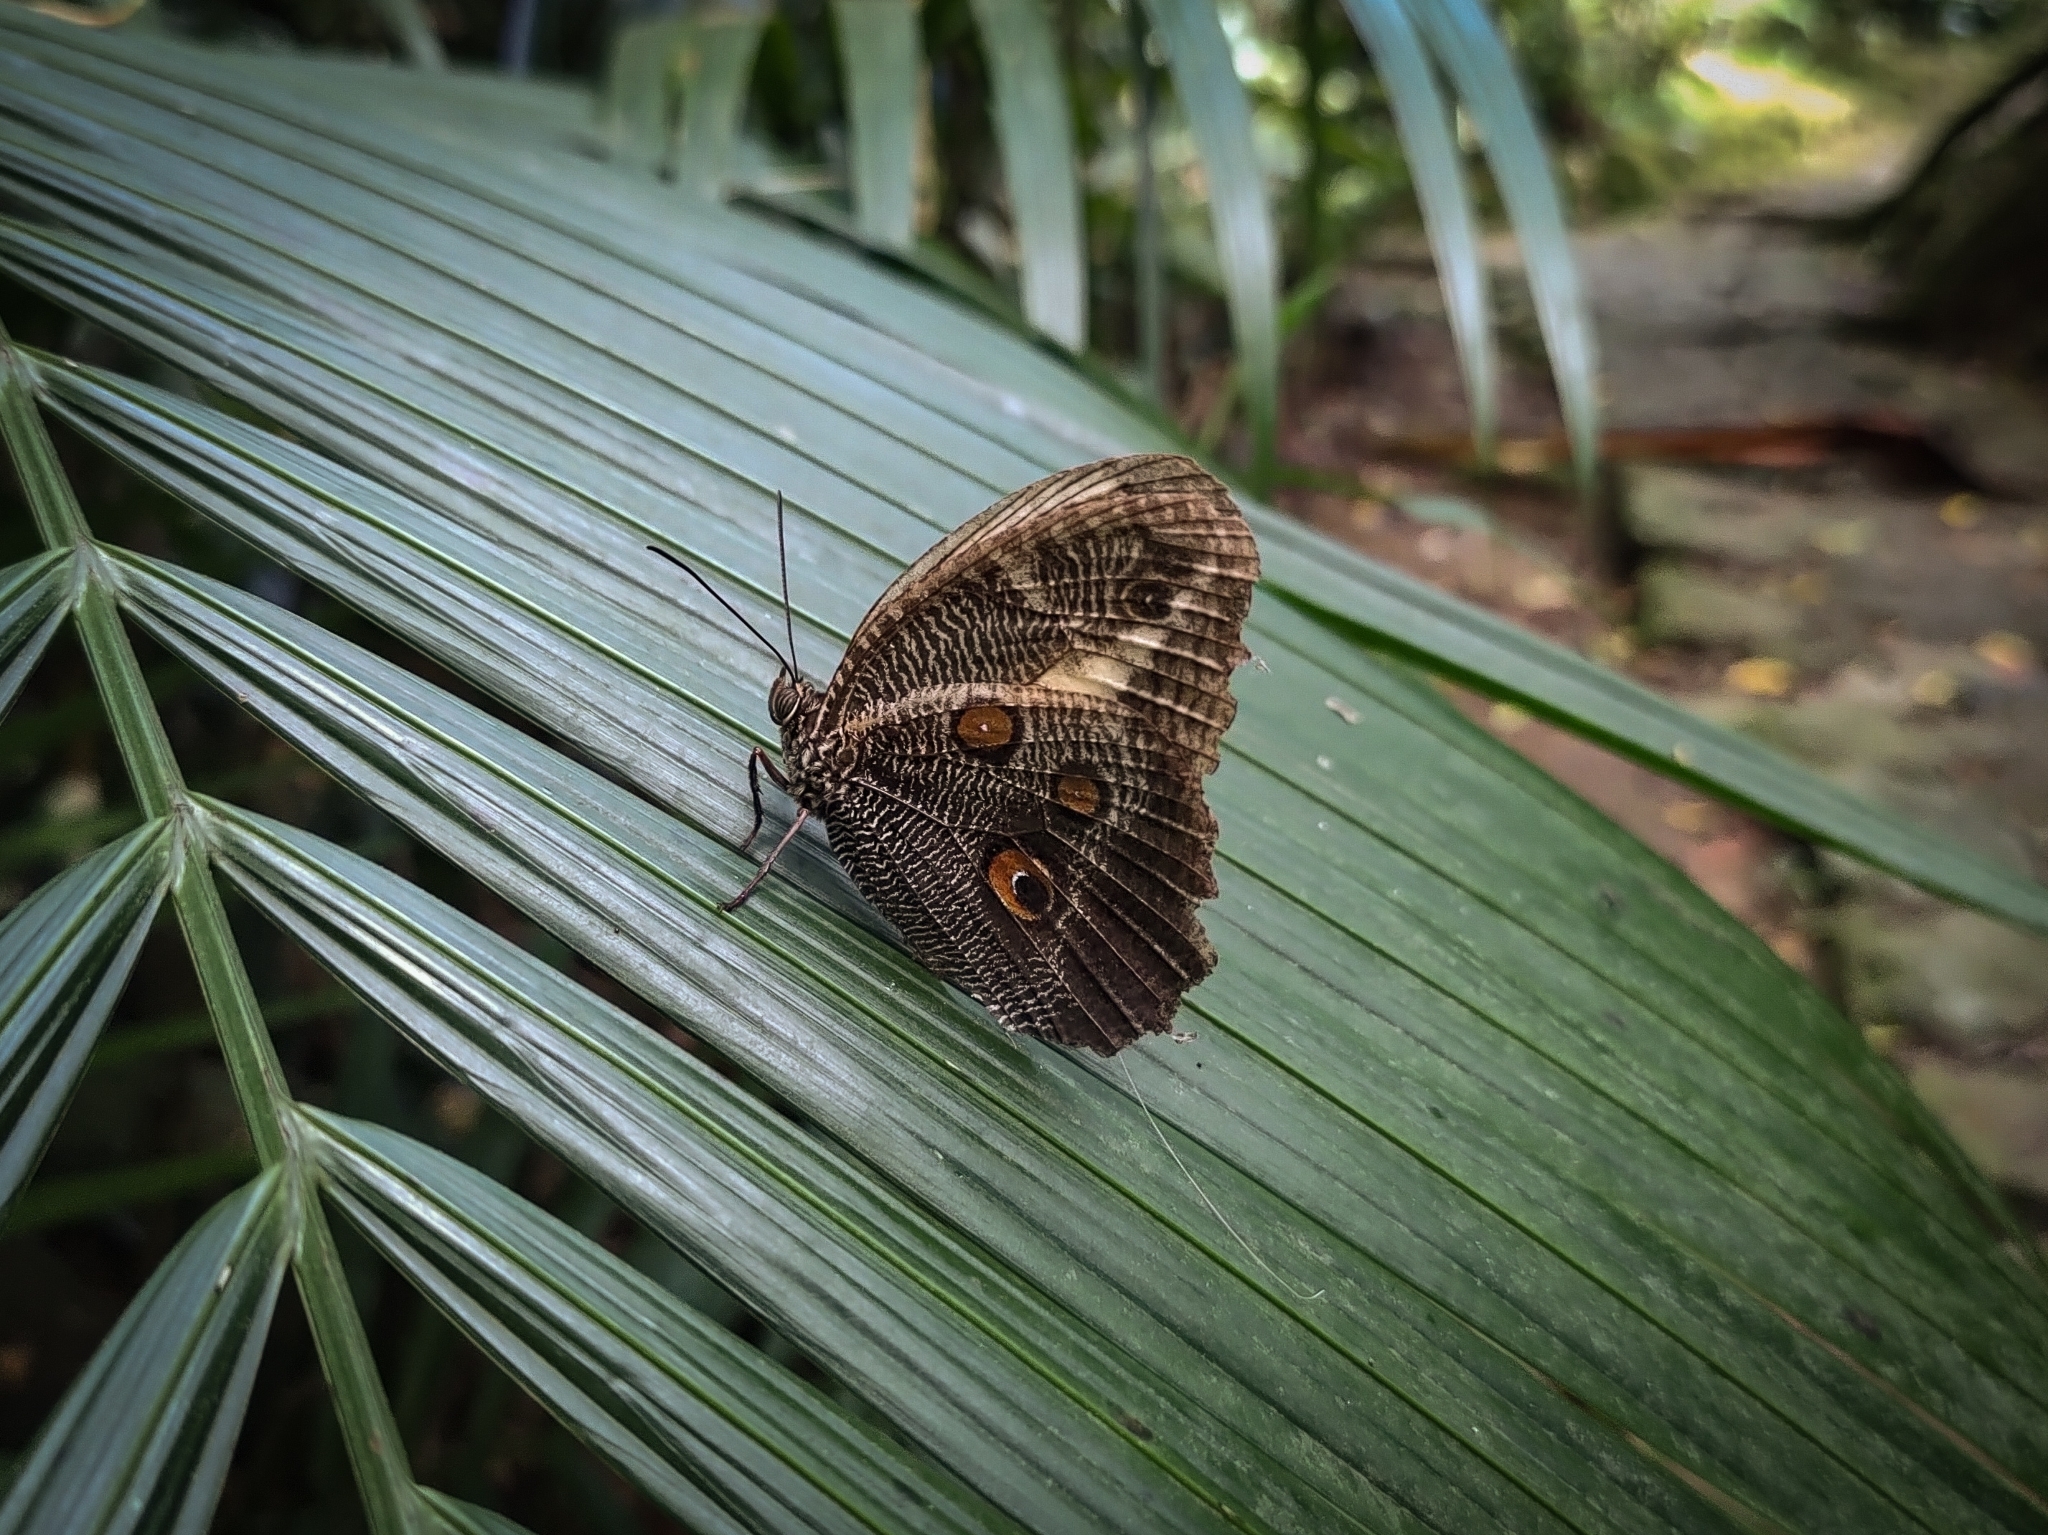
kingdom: Animalia
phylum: Arthropoda
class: Insecta
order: Lepidoptera
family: Nymphalidae
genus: Dasyophthalma
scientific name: Dasyophthalma creusa
